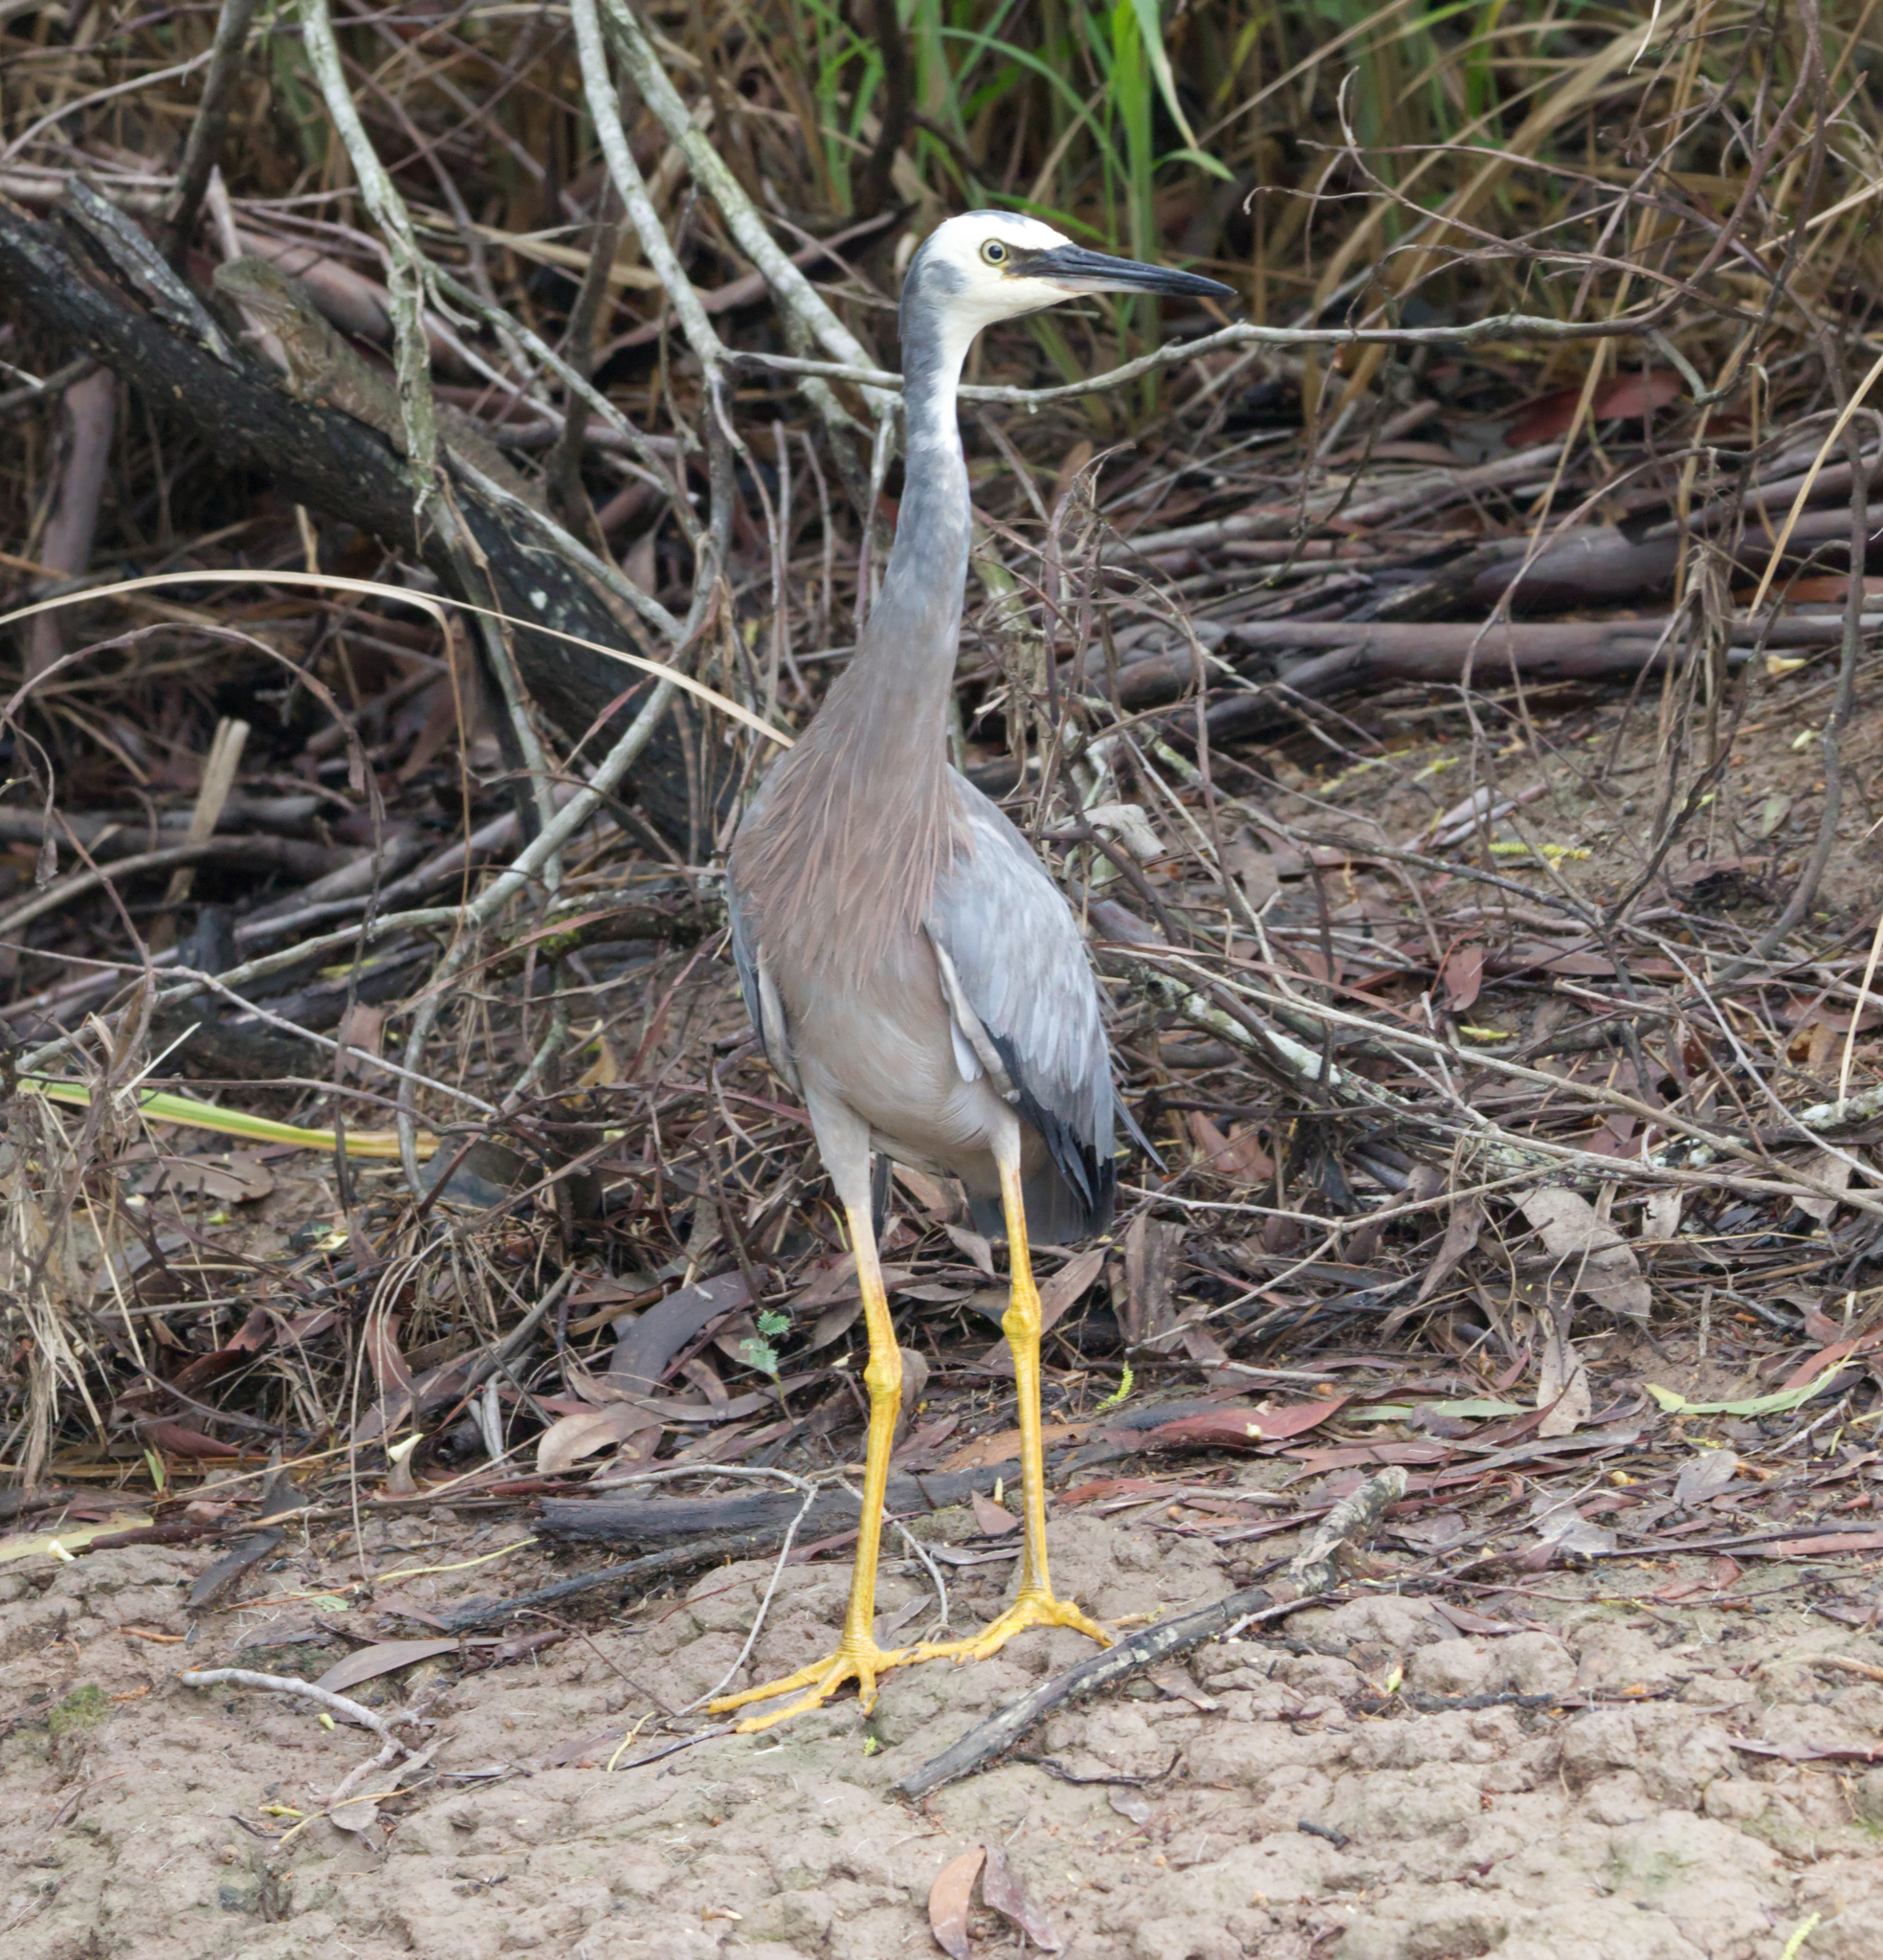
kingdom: Animalia
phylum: Chordata
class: Aves
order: Pelecaniformes
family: Ardeidae
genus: Egretta
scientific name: Egretta novaehollandiae
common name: White-faced heron
